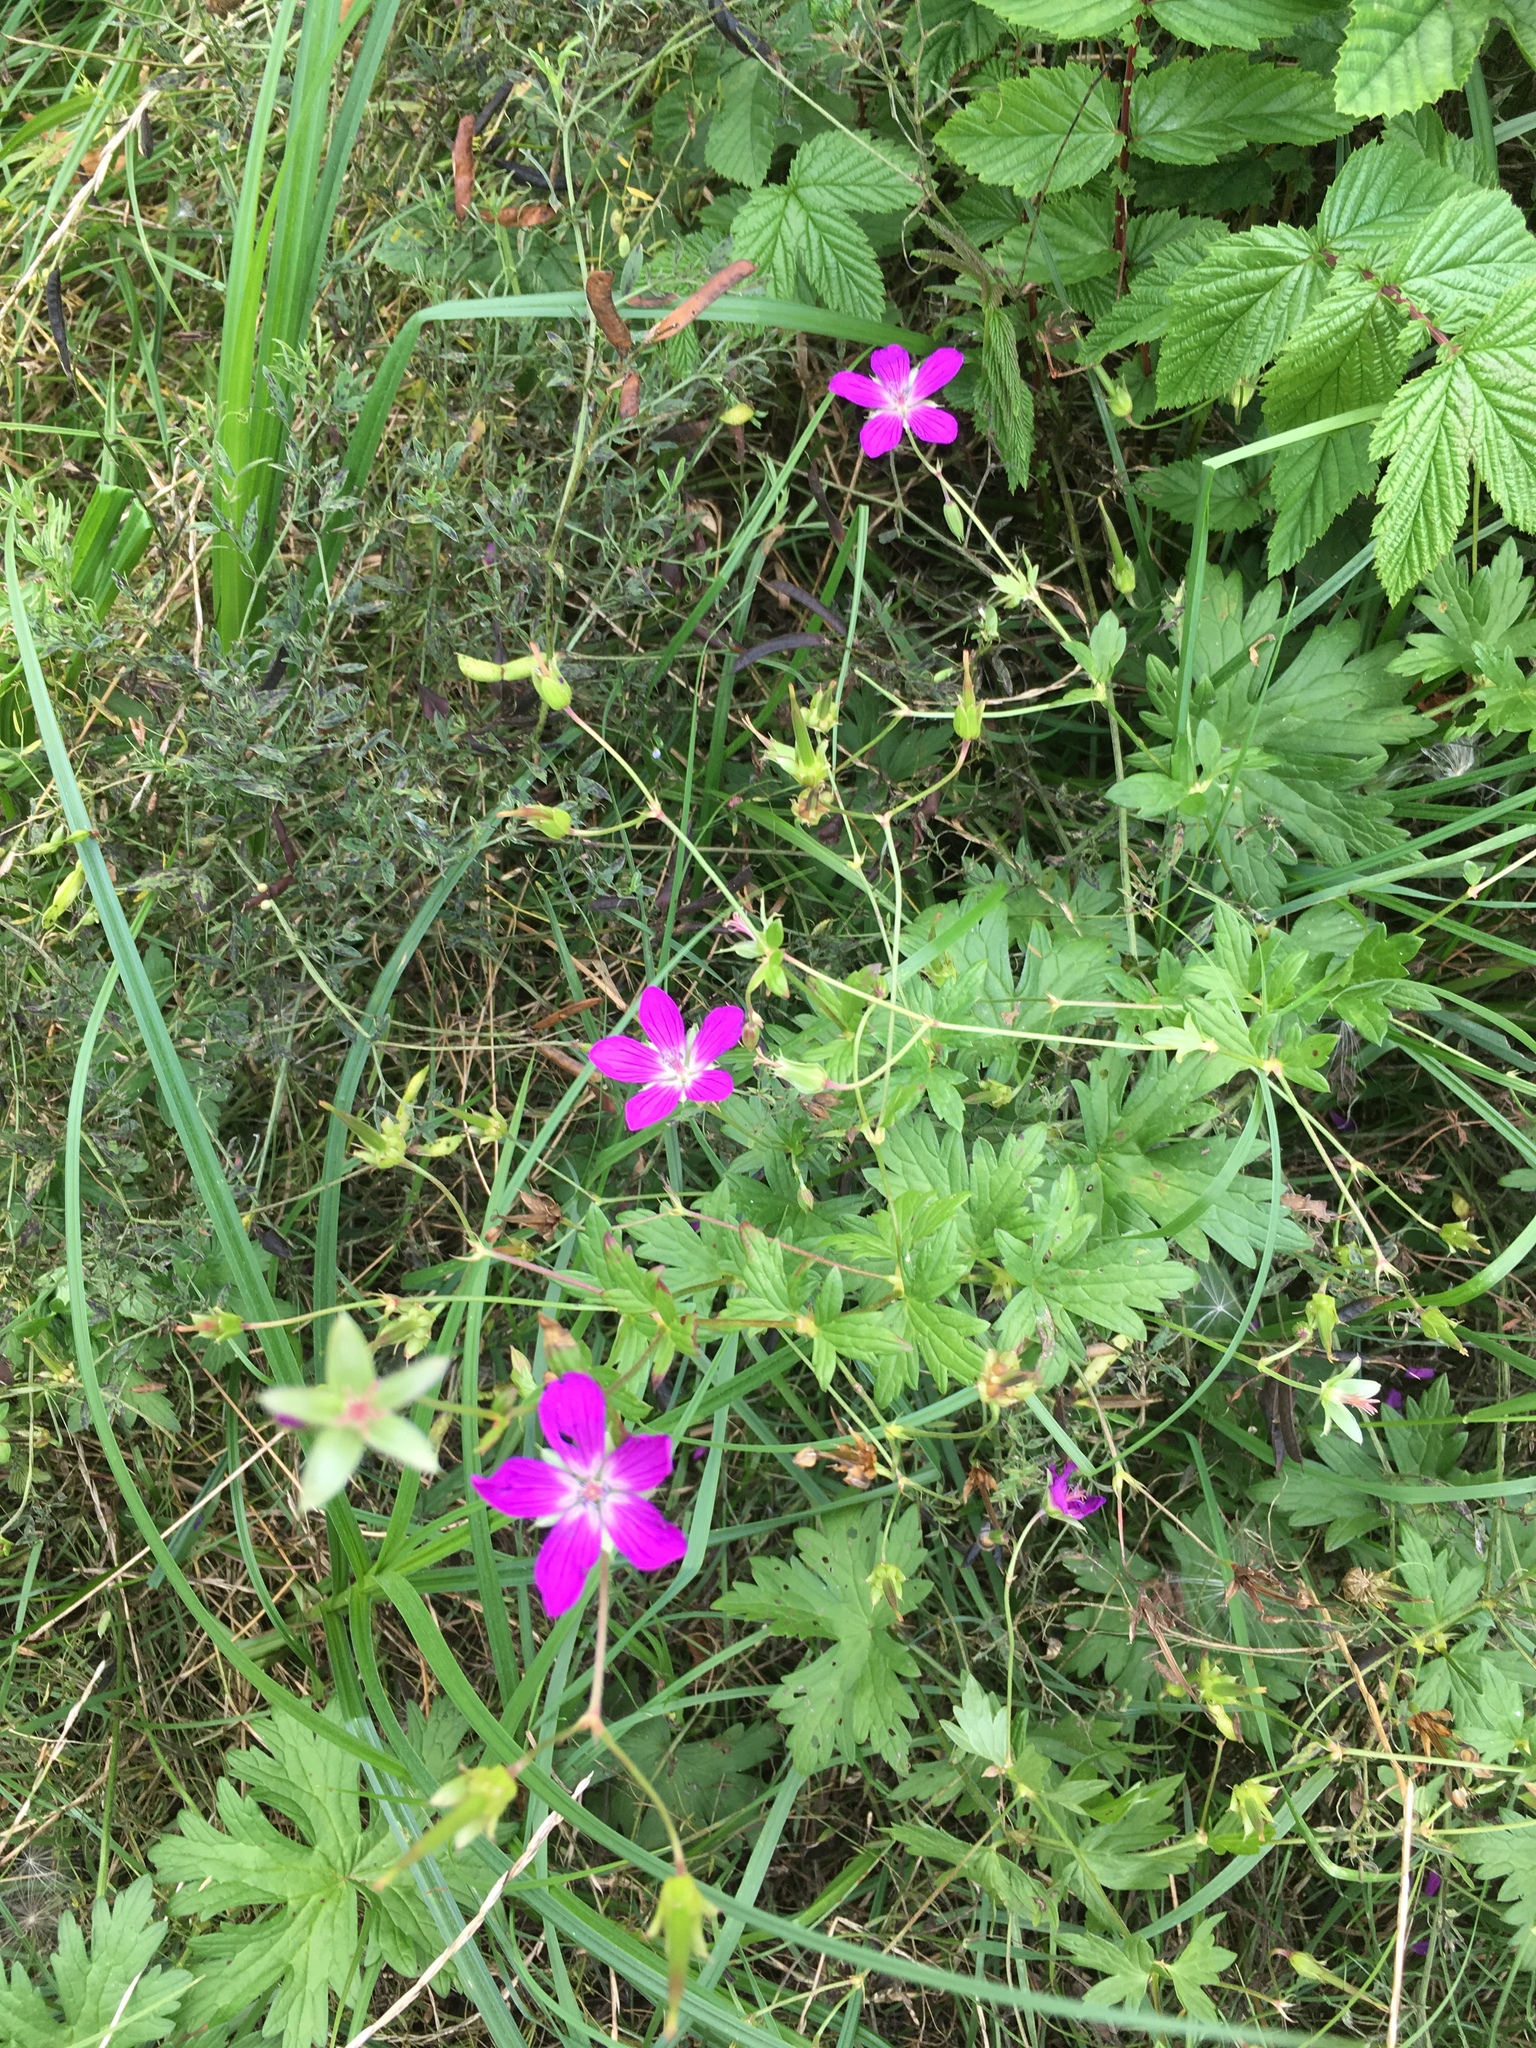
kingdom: Plantae
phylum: Tracheophyta
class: Magnoliopsida
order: Geraniales
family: Geraniaceae
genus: Geranium
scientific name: Geranium palustre
